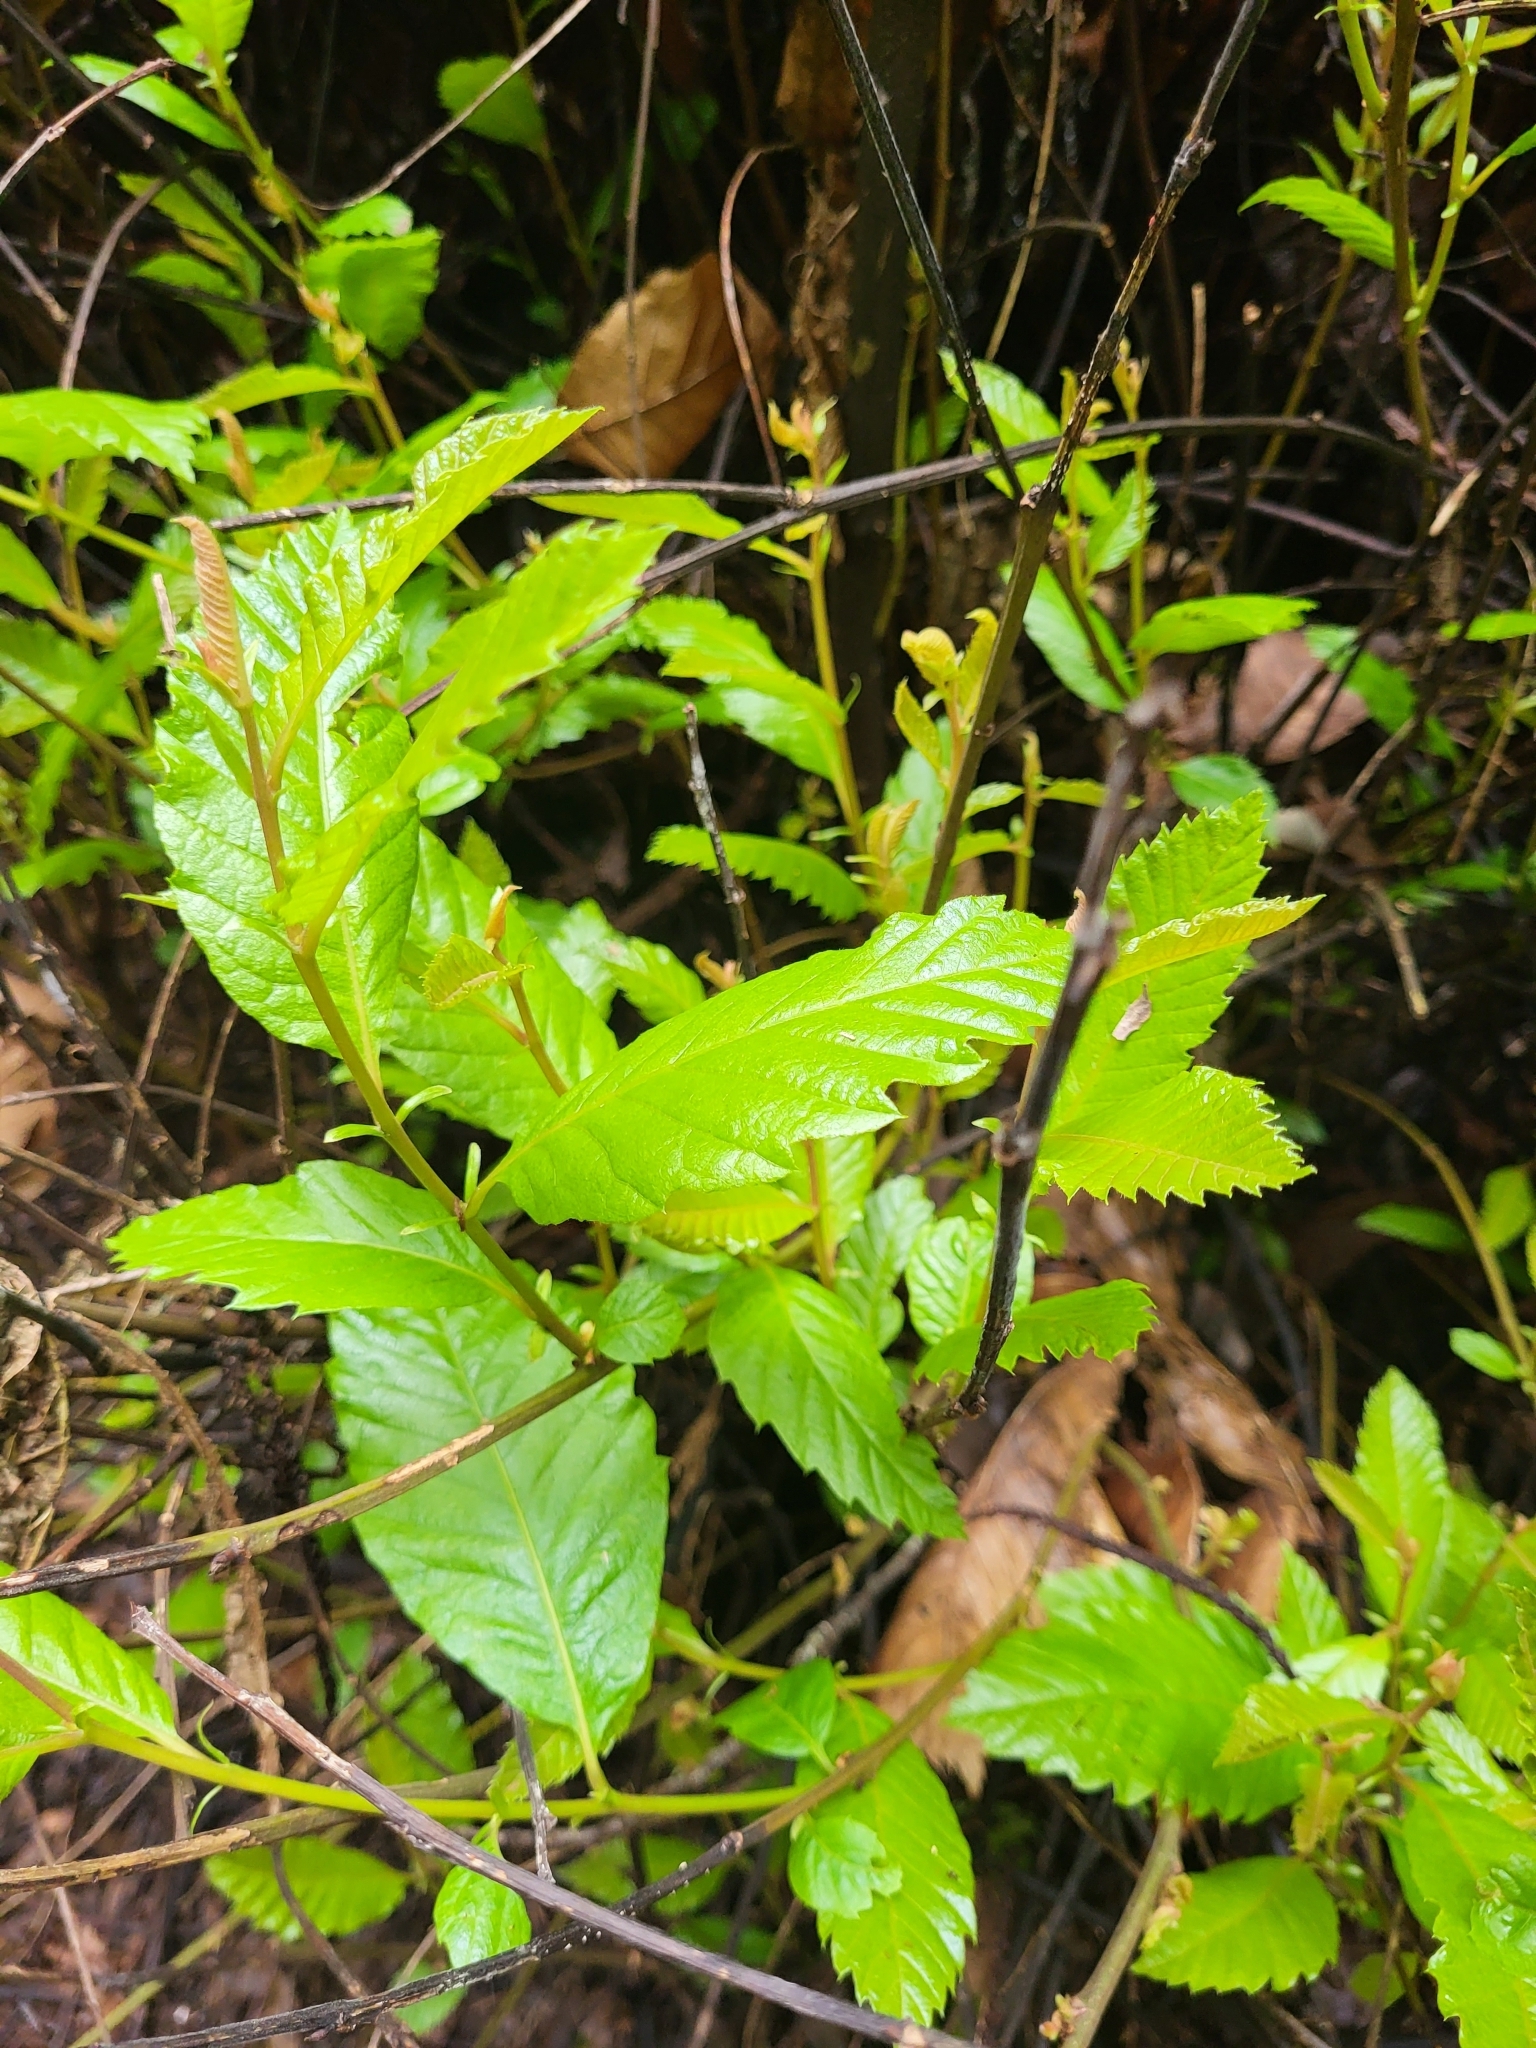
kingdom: Plantae
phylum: Tracheophyta
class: Magnoliopsida
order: Fagales
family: Fagaceae
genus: Castanea
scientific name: Castanea sativa
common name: Sweet chestnut
